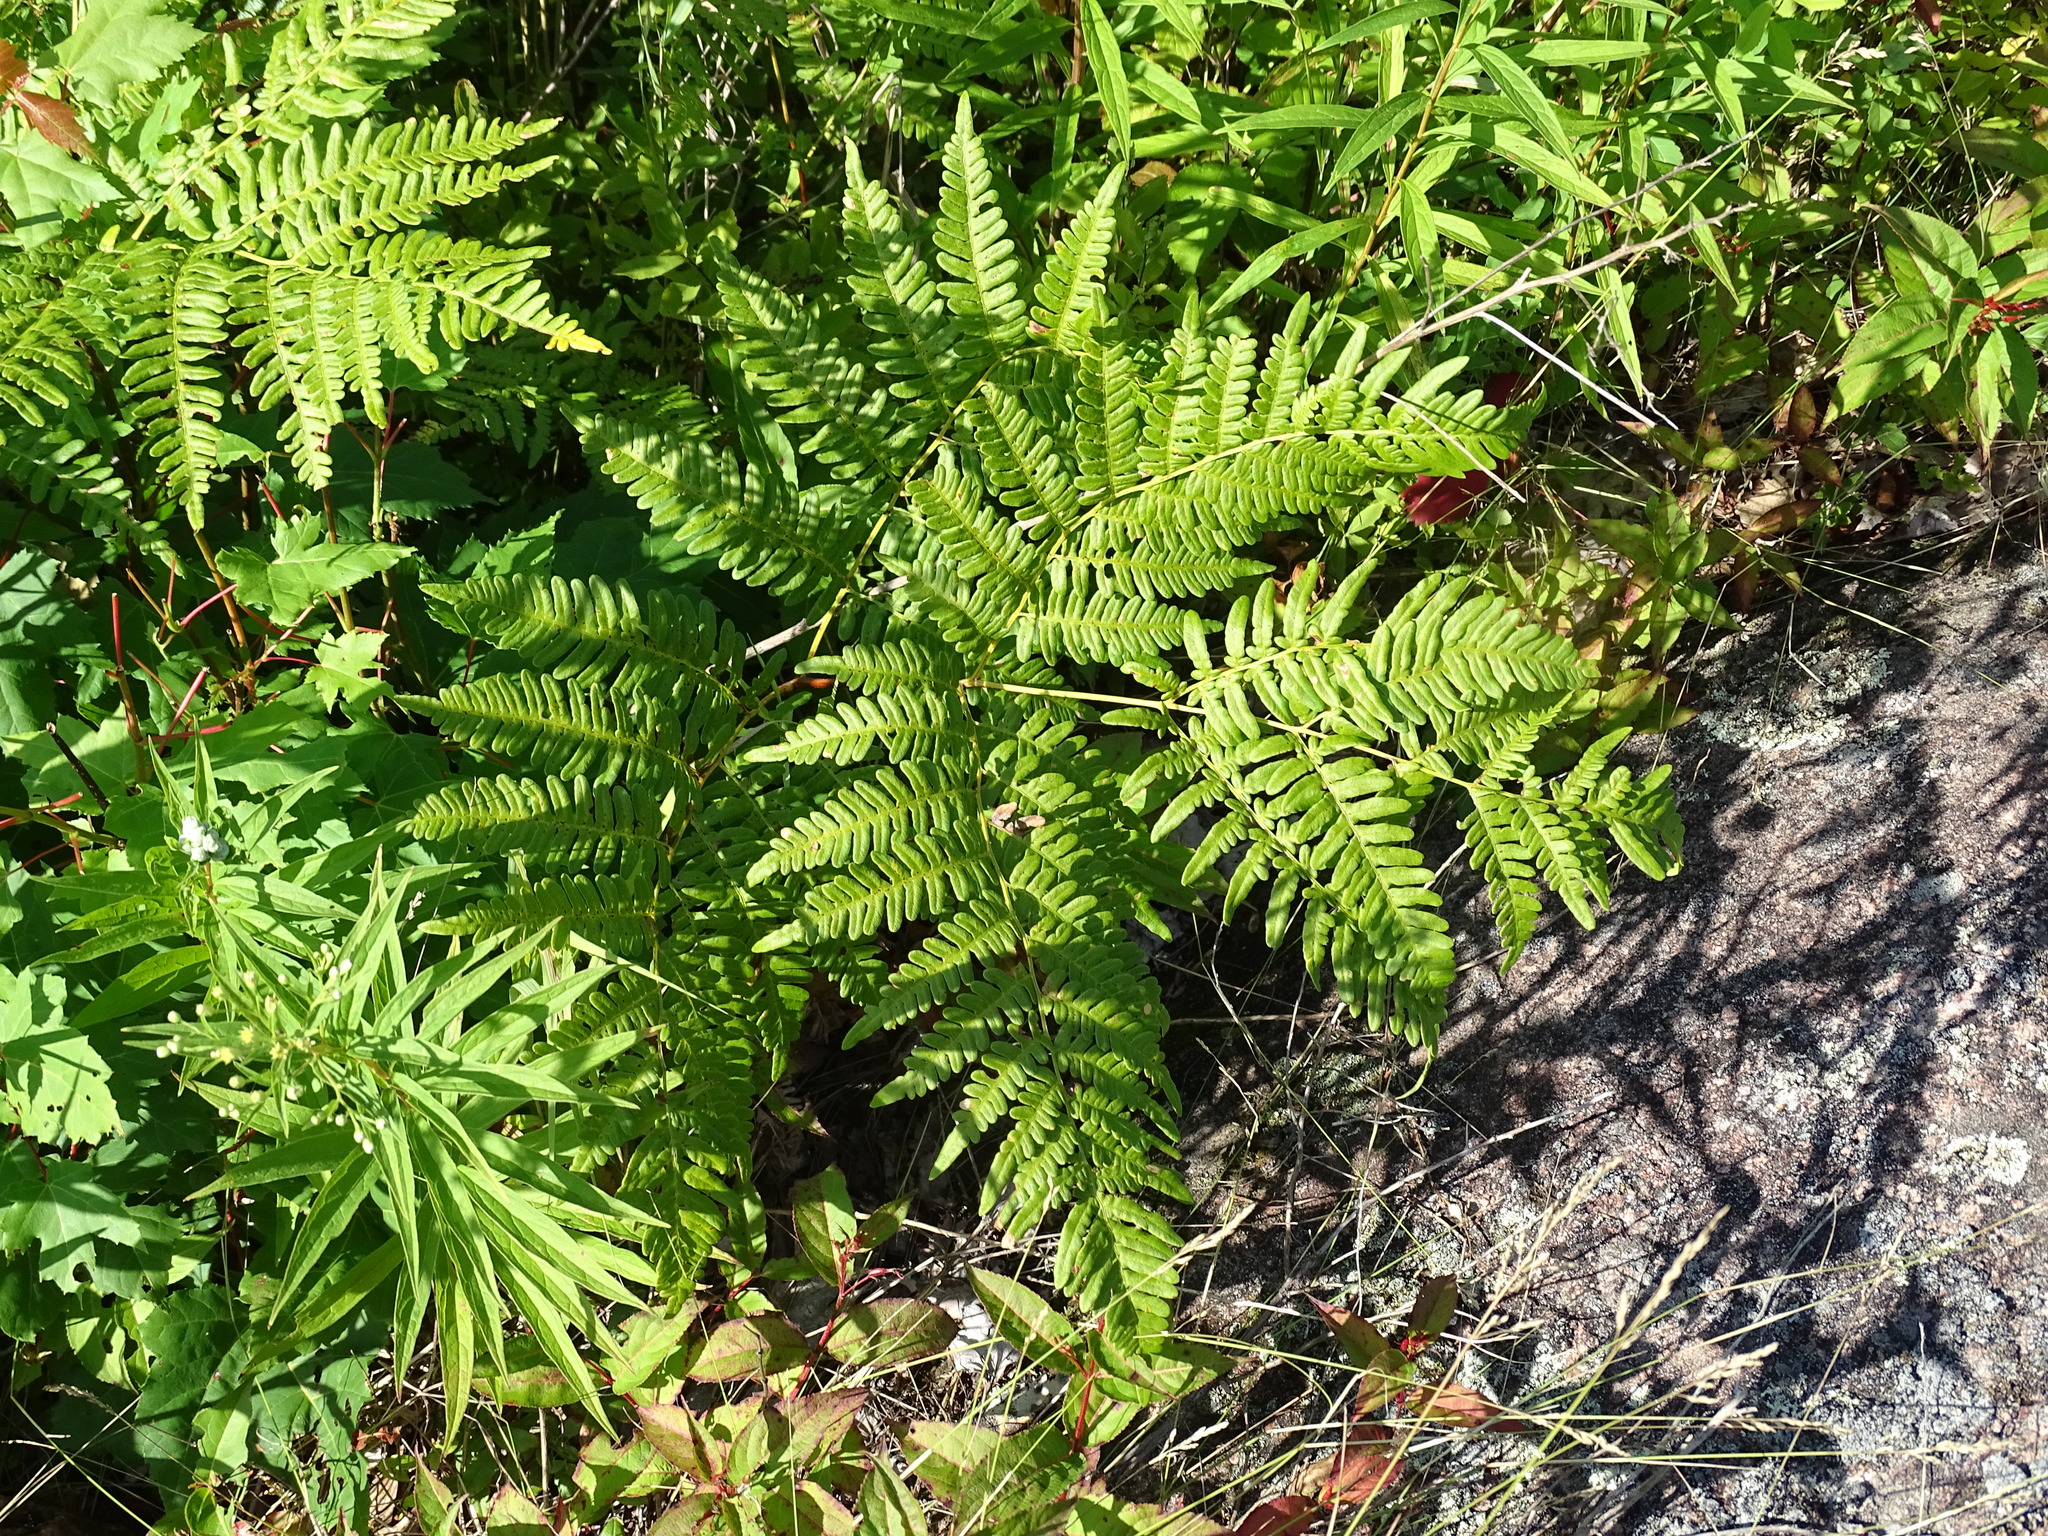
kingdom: Plantae
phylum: Tracheophyta
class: Polypodiopsida
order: Polypodiales
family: Dennstaedtiaceae
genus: Pteridium
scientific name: Pteridium aquilinum
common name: Bracken
